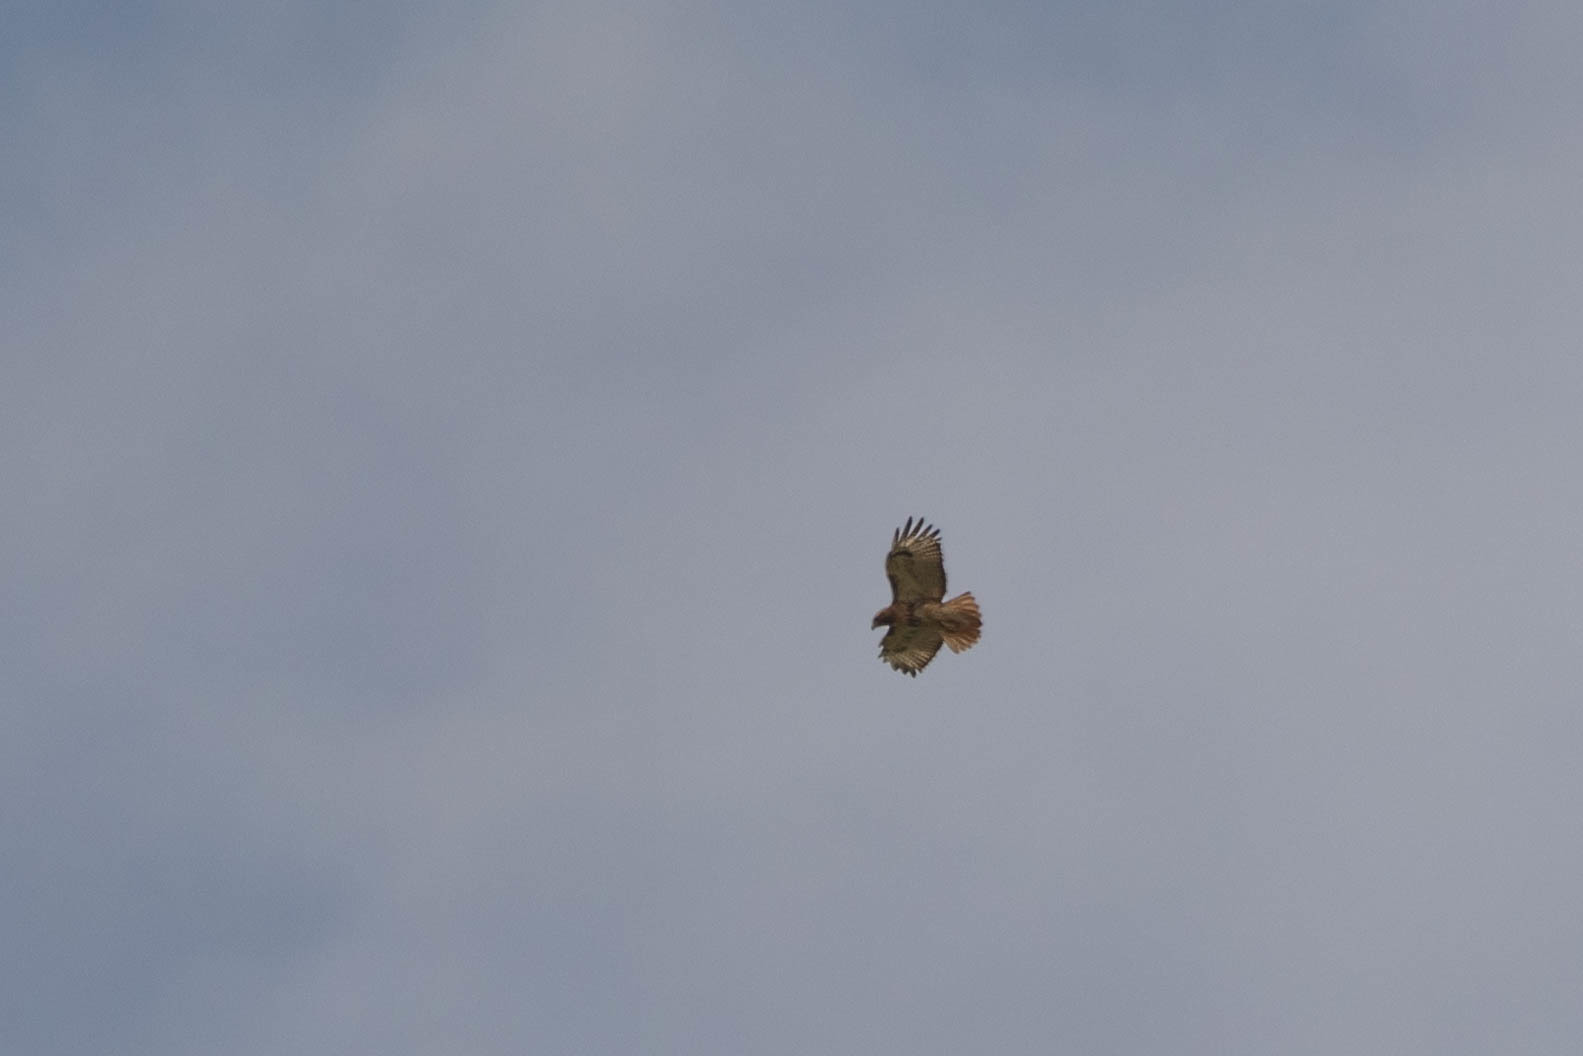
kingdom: Animalia
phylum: Chordata
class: Aves
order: Accipitriformes
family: Accipitridae
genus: Buteo
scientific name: Buteo jamaicensis
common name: Red-tailed hawk
